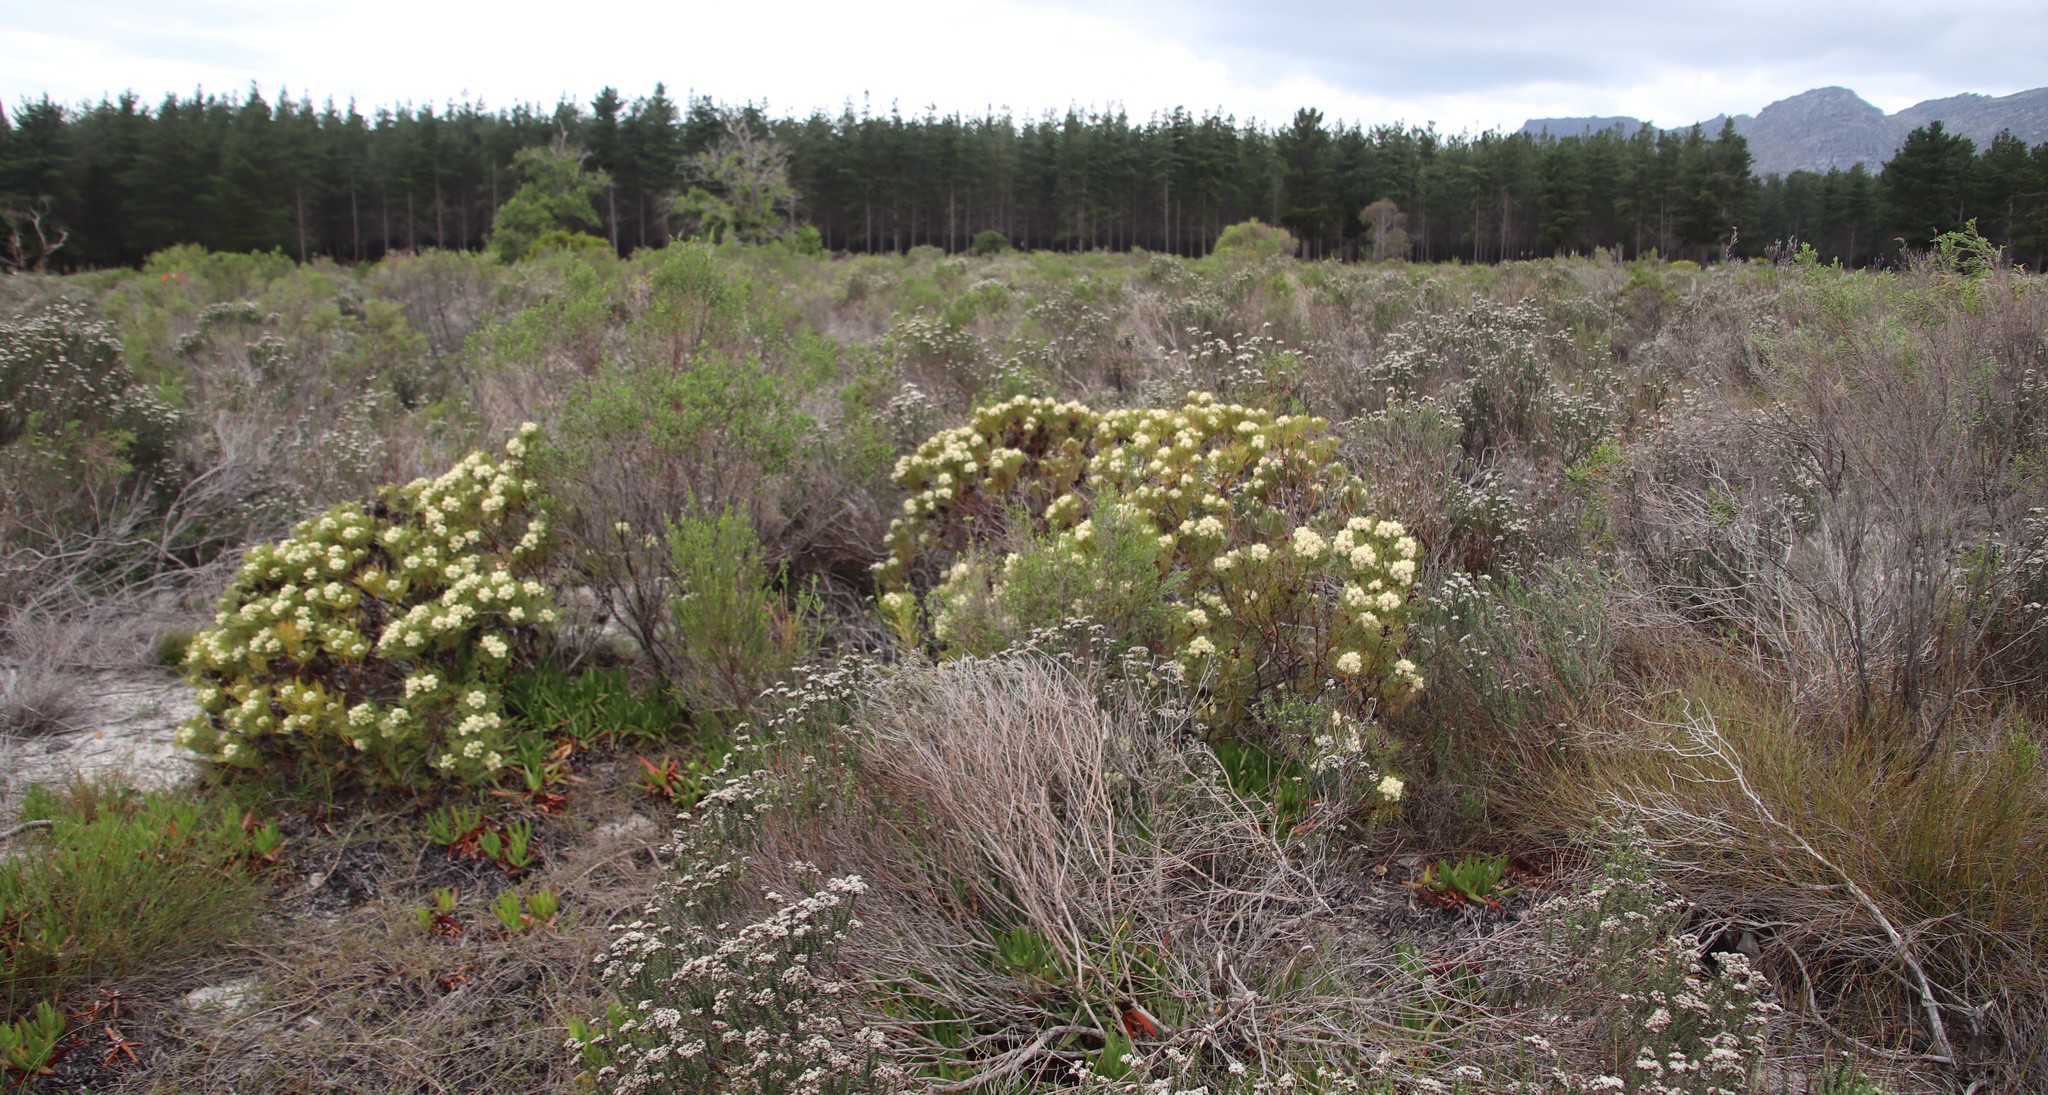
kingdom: Plantae
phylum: Tracheophyta
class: Magnoliopsida
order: Proteales
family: Proteaceae
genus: Serruria
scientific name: Serruria glomerata
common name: Cluster spiderhead
